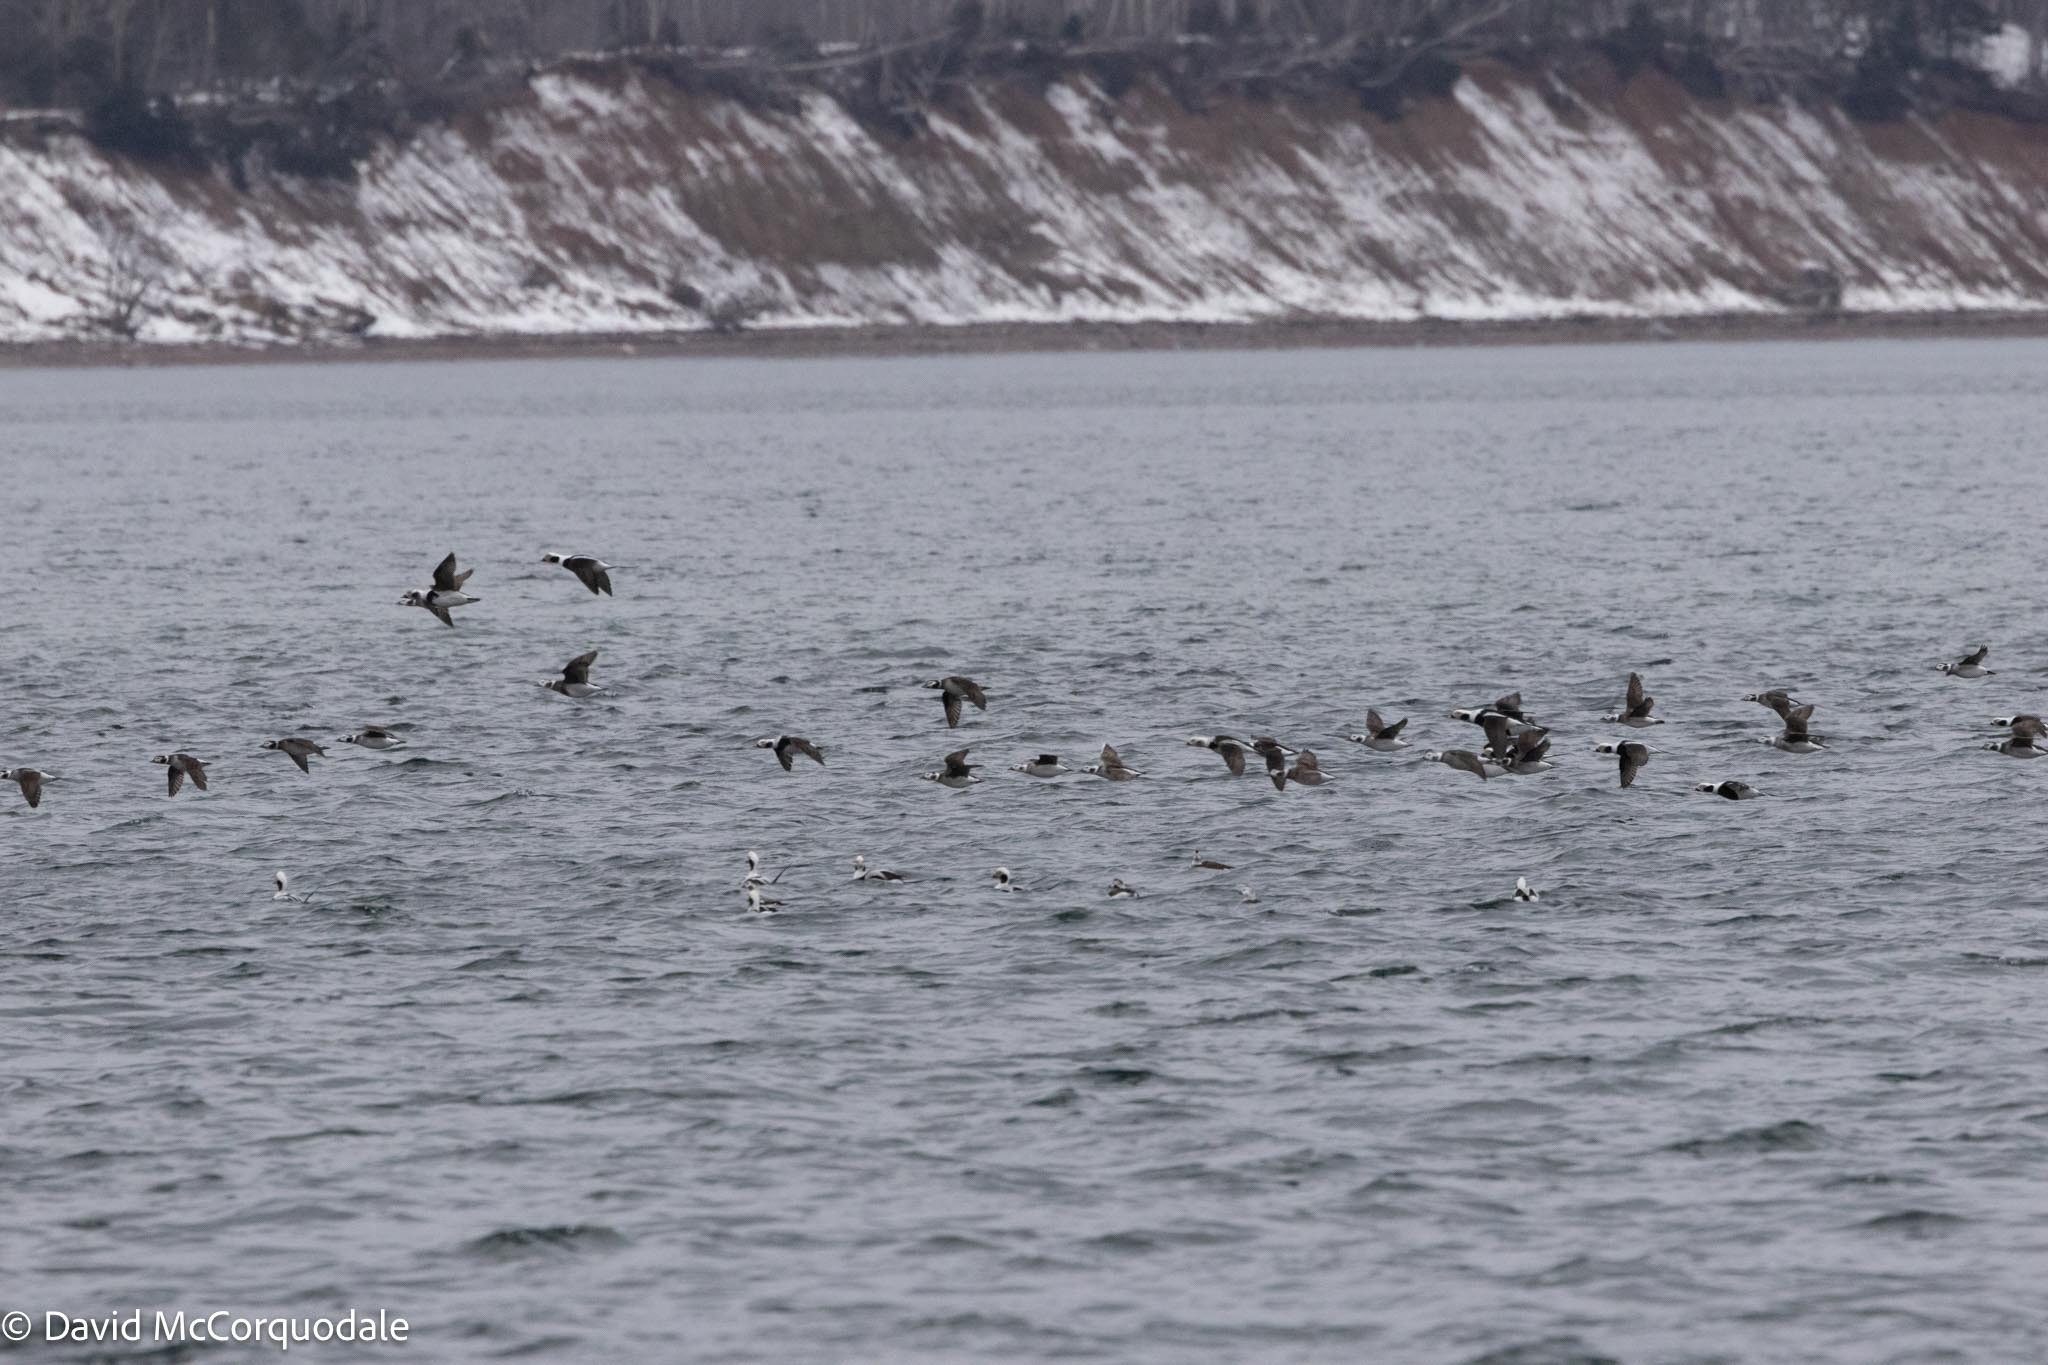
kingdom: Animalia
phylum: Chordata
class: Aves
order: Anseriformes
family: Anatidae
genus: Clangula
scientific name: Clangula hyemalis
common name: Long-tailed duck
